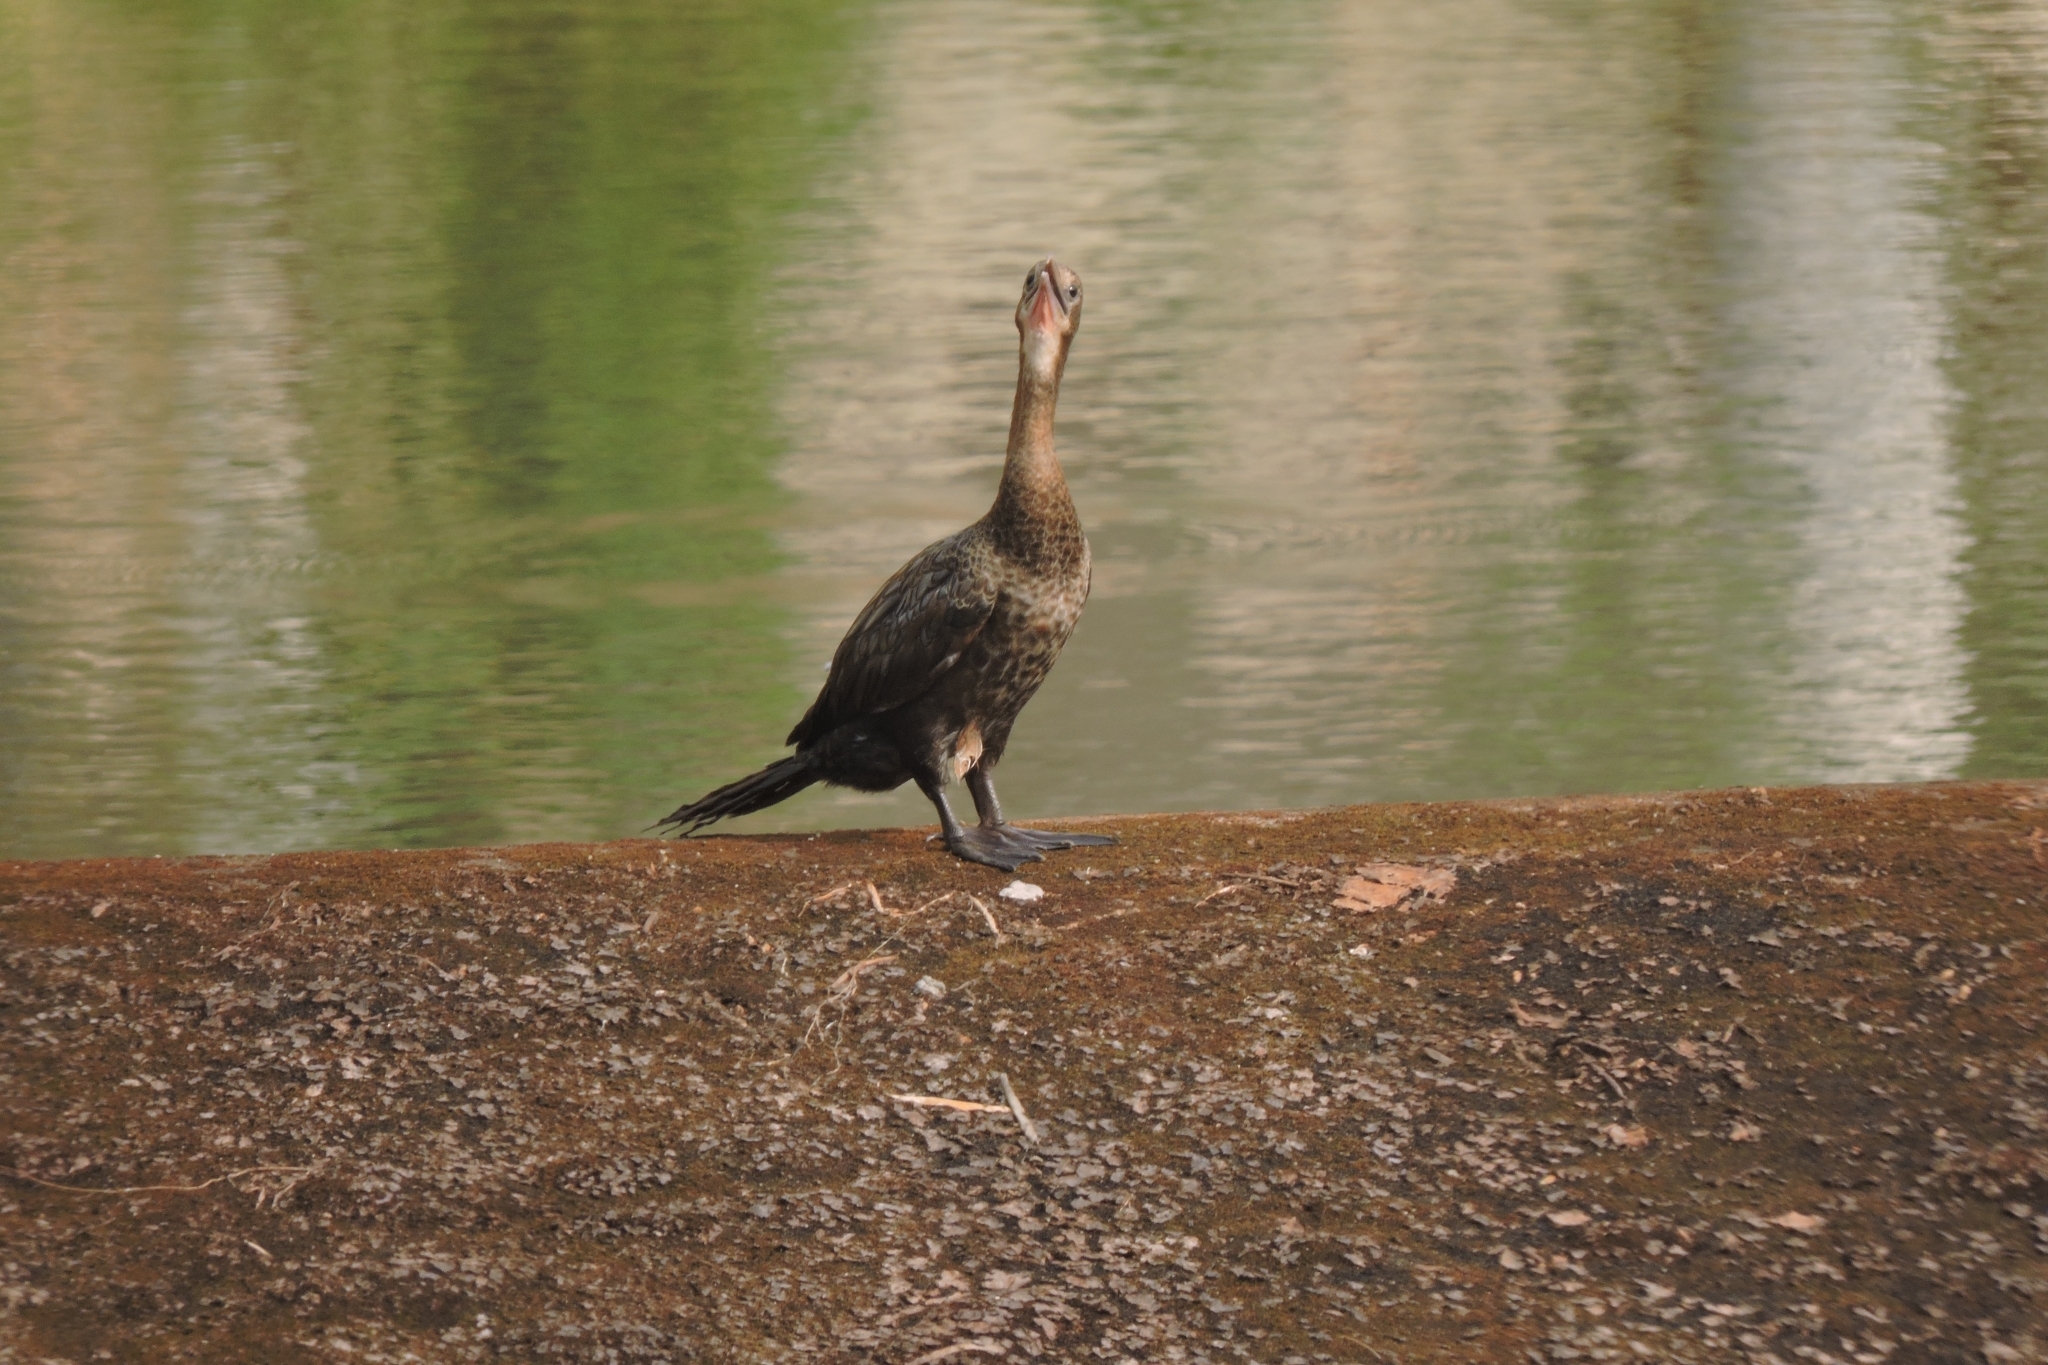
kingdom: Animalia
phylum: Chordata
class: Aves
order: Suliformes
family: Phalacrocoracidae
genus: Microcarbo
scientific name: Microcarbo niger
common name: Little cormorant
